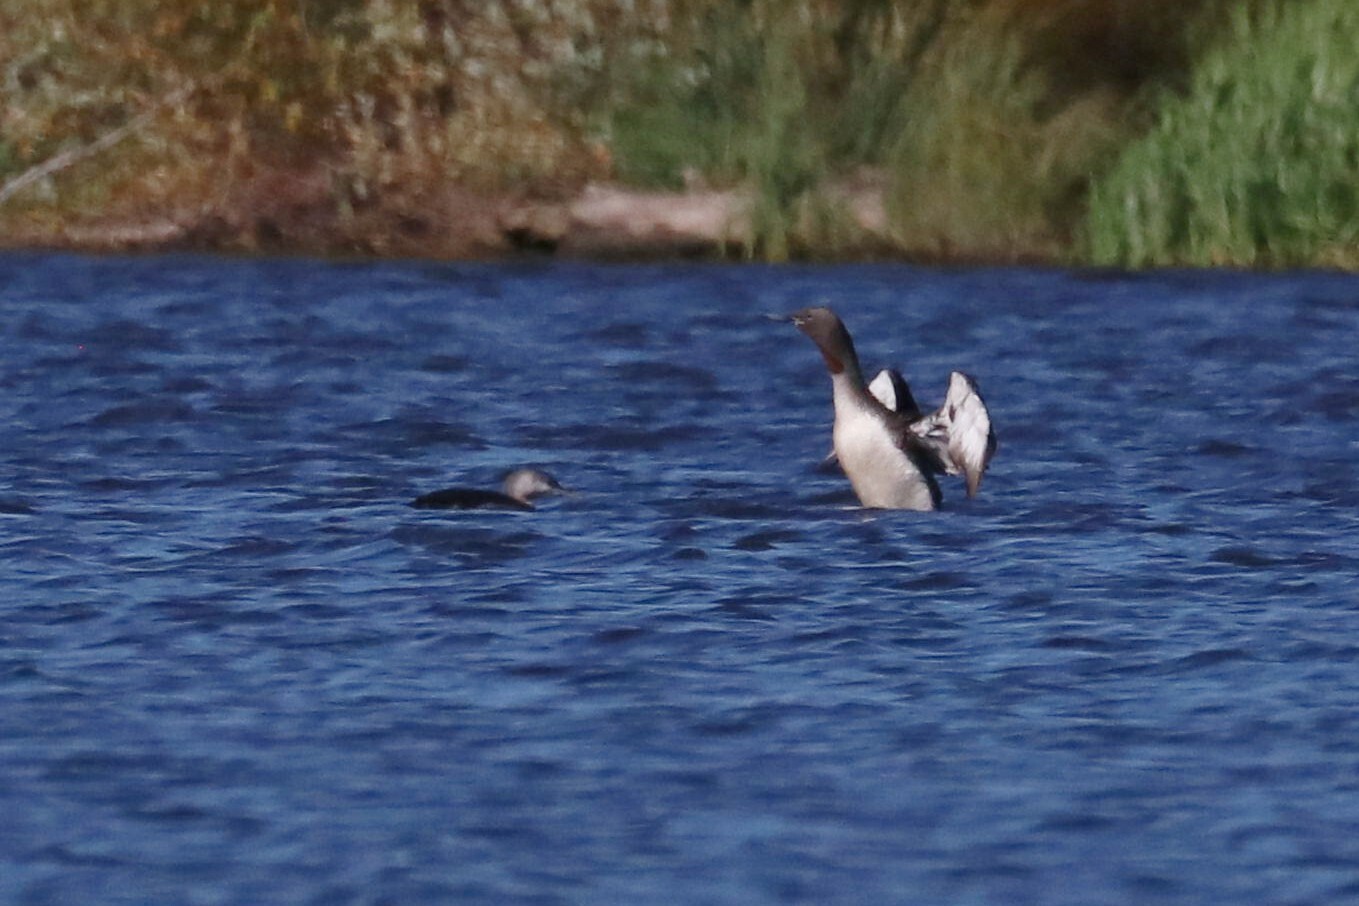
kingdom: Animalia
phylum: Chordata
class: Aves
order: Gaviiformes
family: Gaviidae
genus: Gavia
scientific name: Gavia stellata
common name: Red-throated loon
